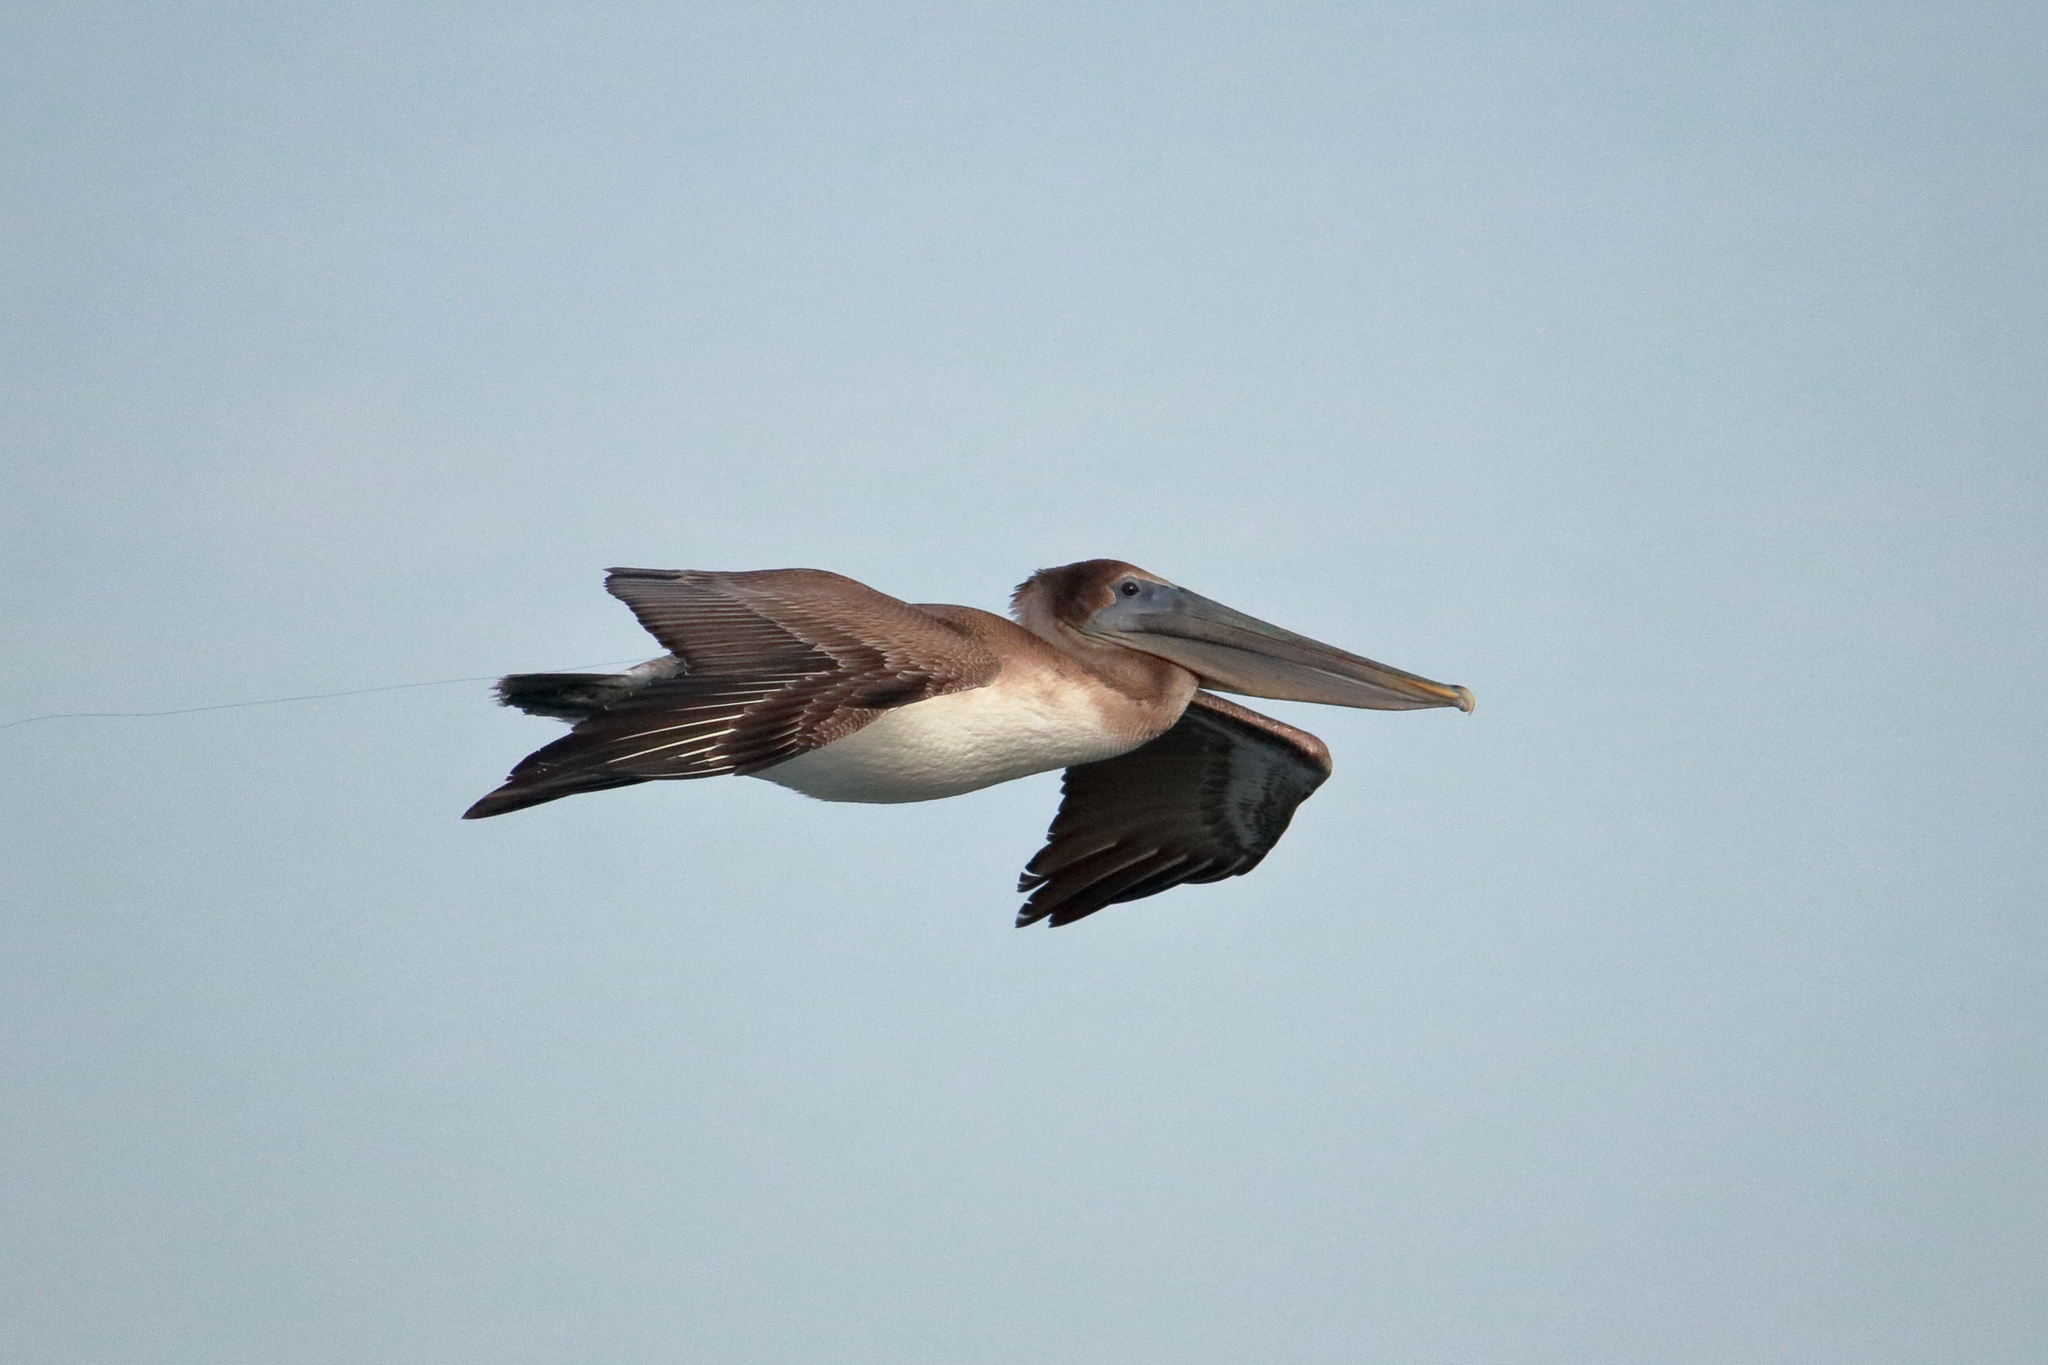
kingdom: Animalia
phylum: Chordata
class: Aves
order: Pelecaniformes
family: Pelecanidae
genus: Pelecanus
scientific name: Pelecanus occidentalis
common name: Brown pelican
